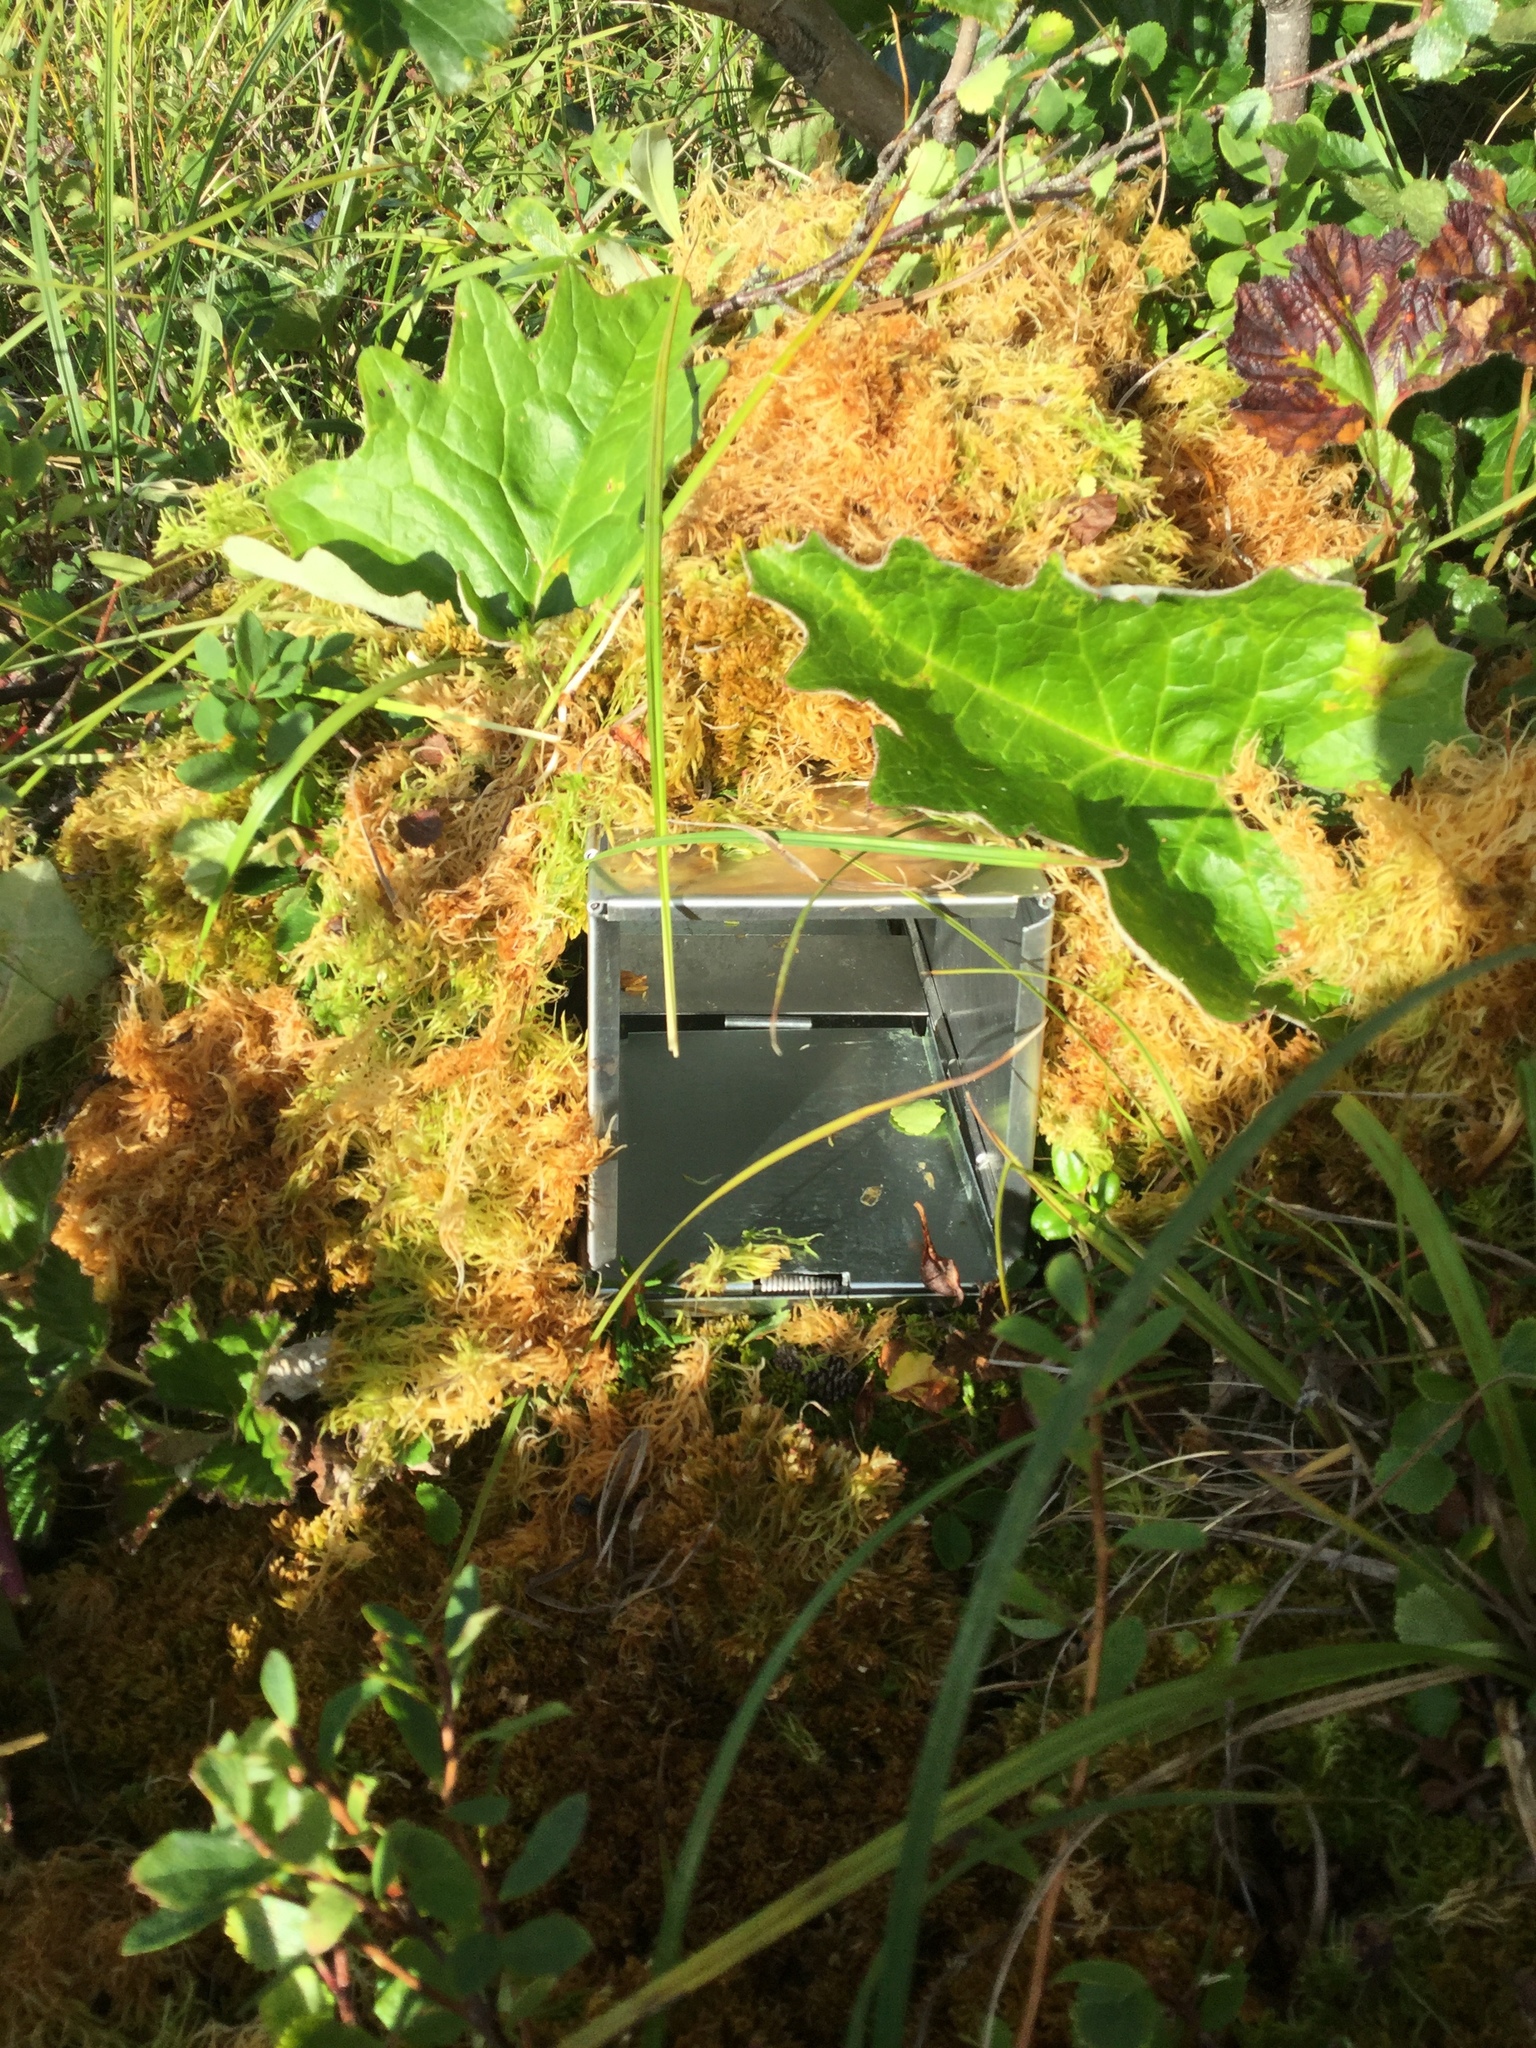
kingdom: Plantae
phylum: Tracheophyta
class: Magnoliopsida
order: Asterales
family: Asteraceae
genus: Petasites
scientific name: Petasites frigidus
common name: Arctic butterbur
